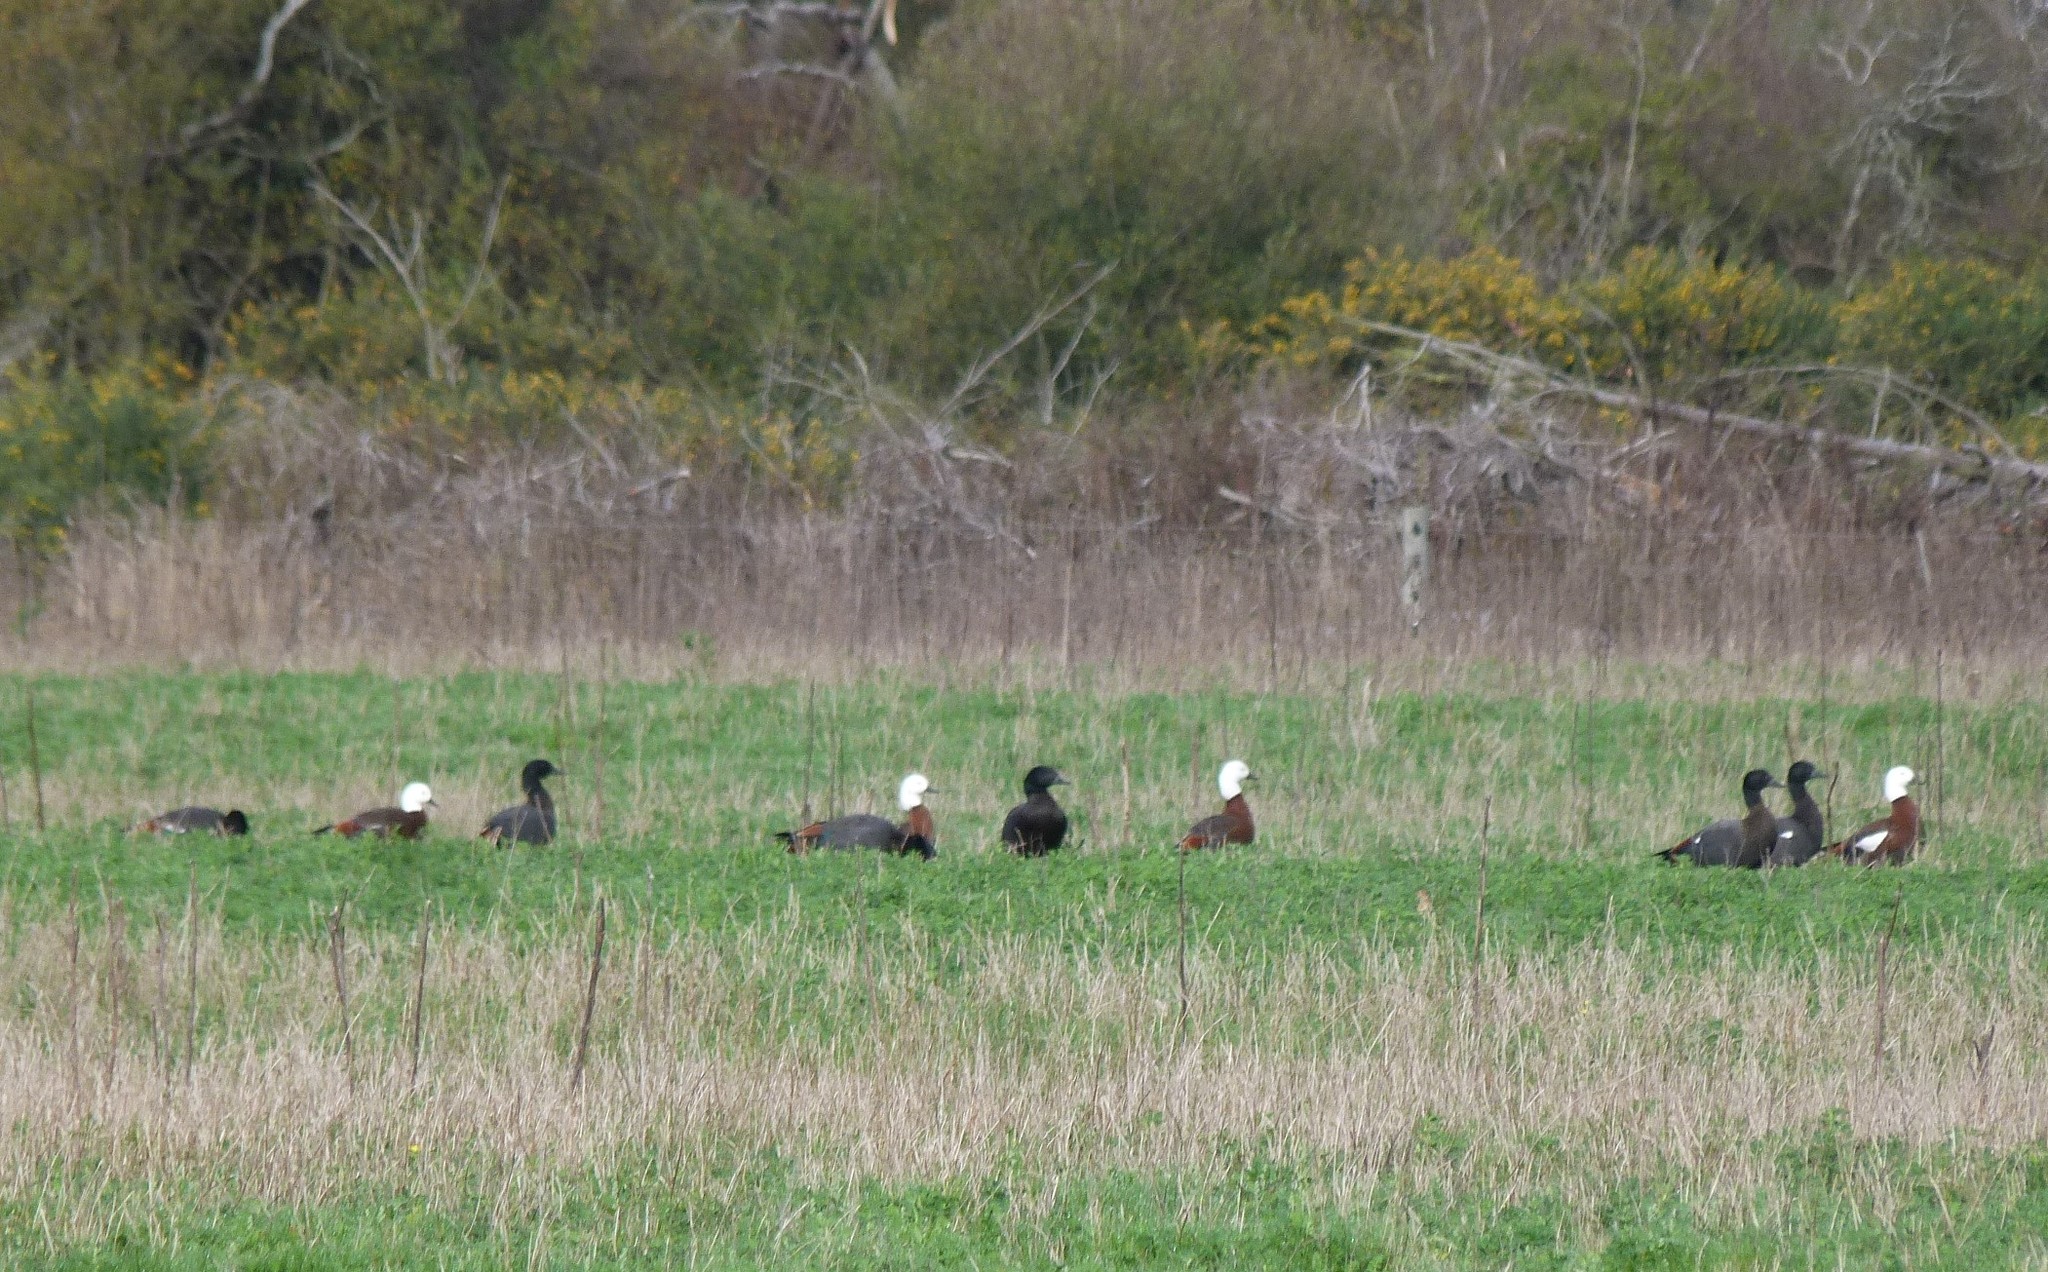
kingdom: Animalia
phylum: Chordata
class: Aves
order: Anseriformes
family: Anatidae
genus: Tadorna
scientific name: Tadorna variegata
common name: Paradise shelduck
